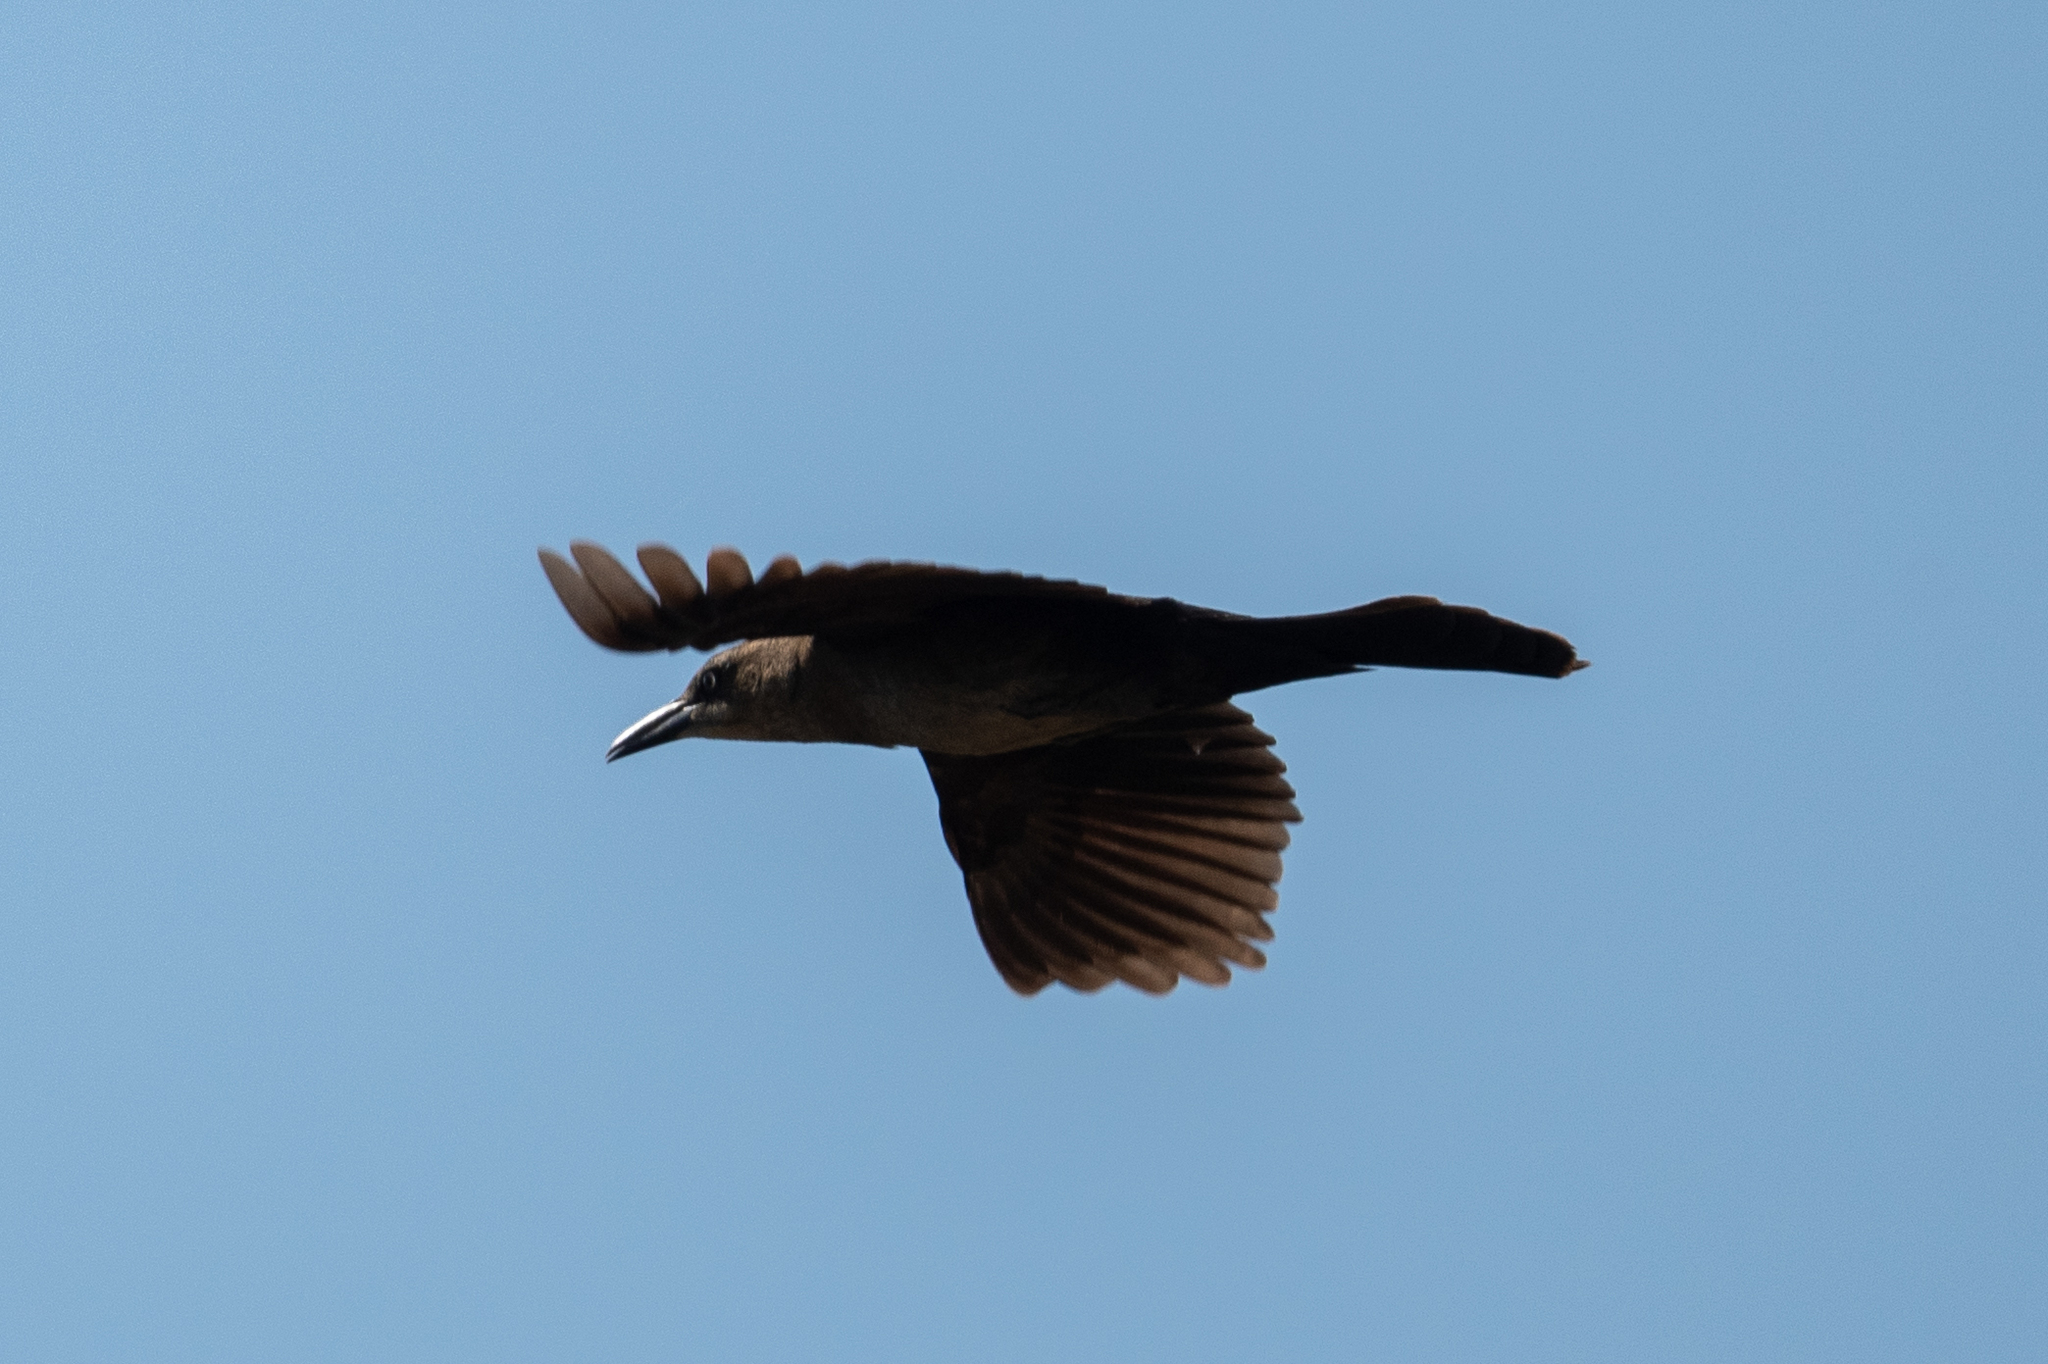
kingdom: Animalia
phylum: Chordata
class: Aves
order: Passeriformes
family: Icteridae
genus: Quiscalus
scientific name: Quiscalus mexicanus
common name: Great-tailed grackle
